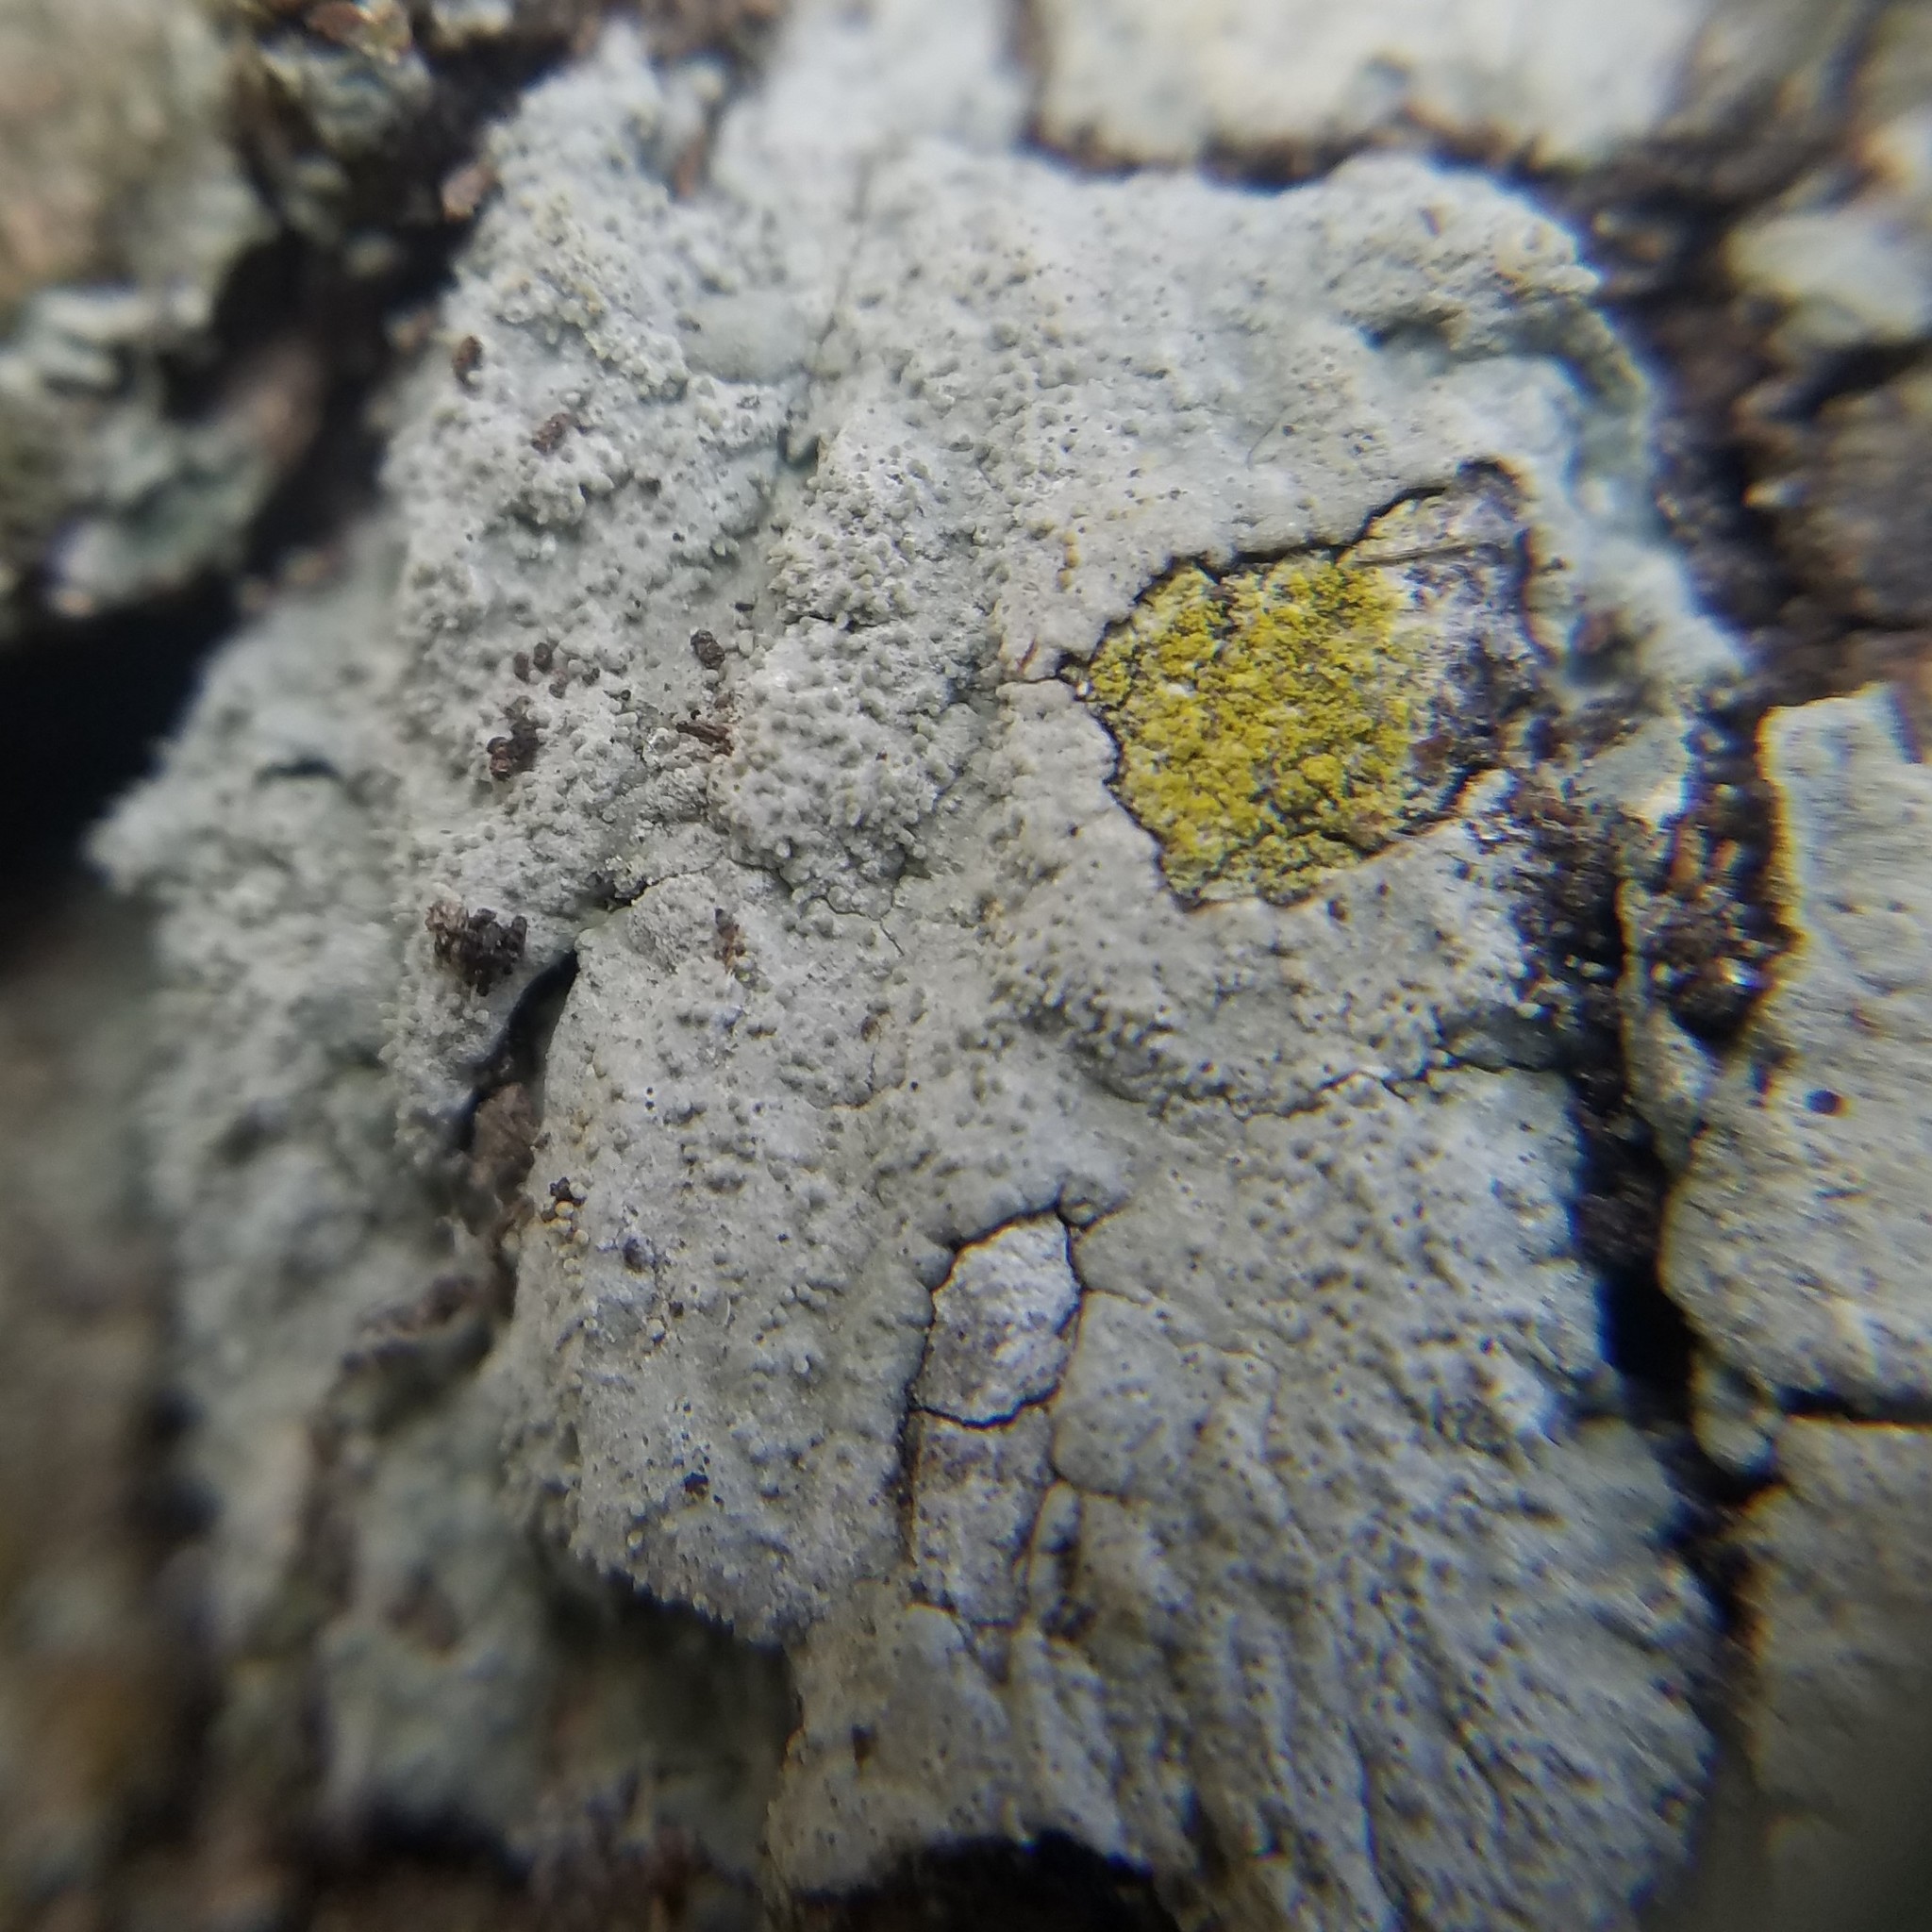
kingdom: Fungi
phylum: Ascomycota
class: Lecanoromycetes
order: Ostropales
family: Graphidaceae
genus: Reimnitzia
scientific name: Reimnitzia santensis
